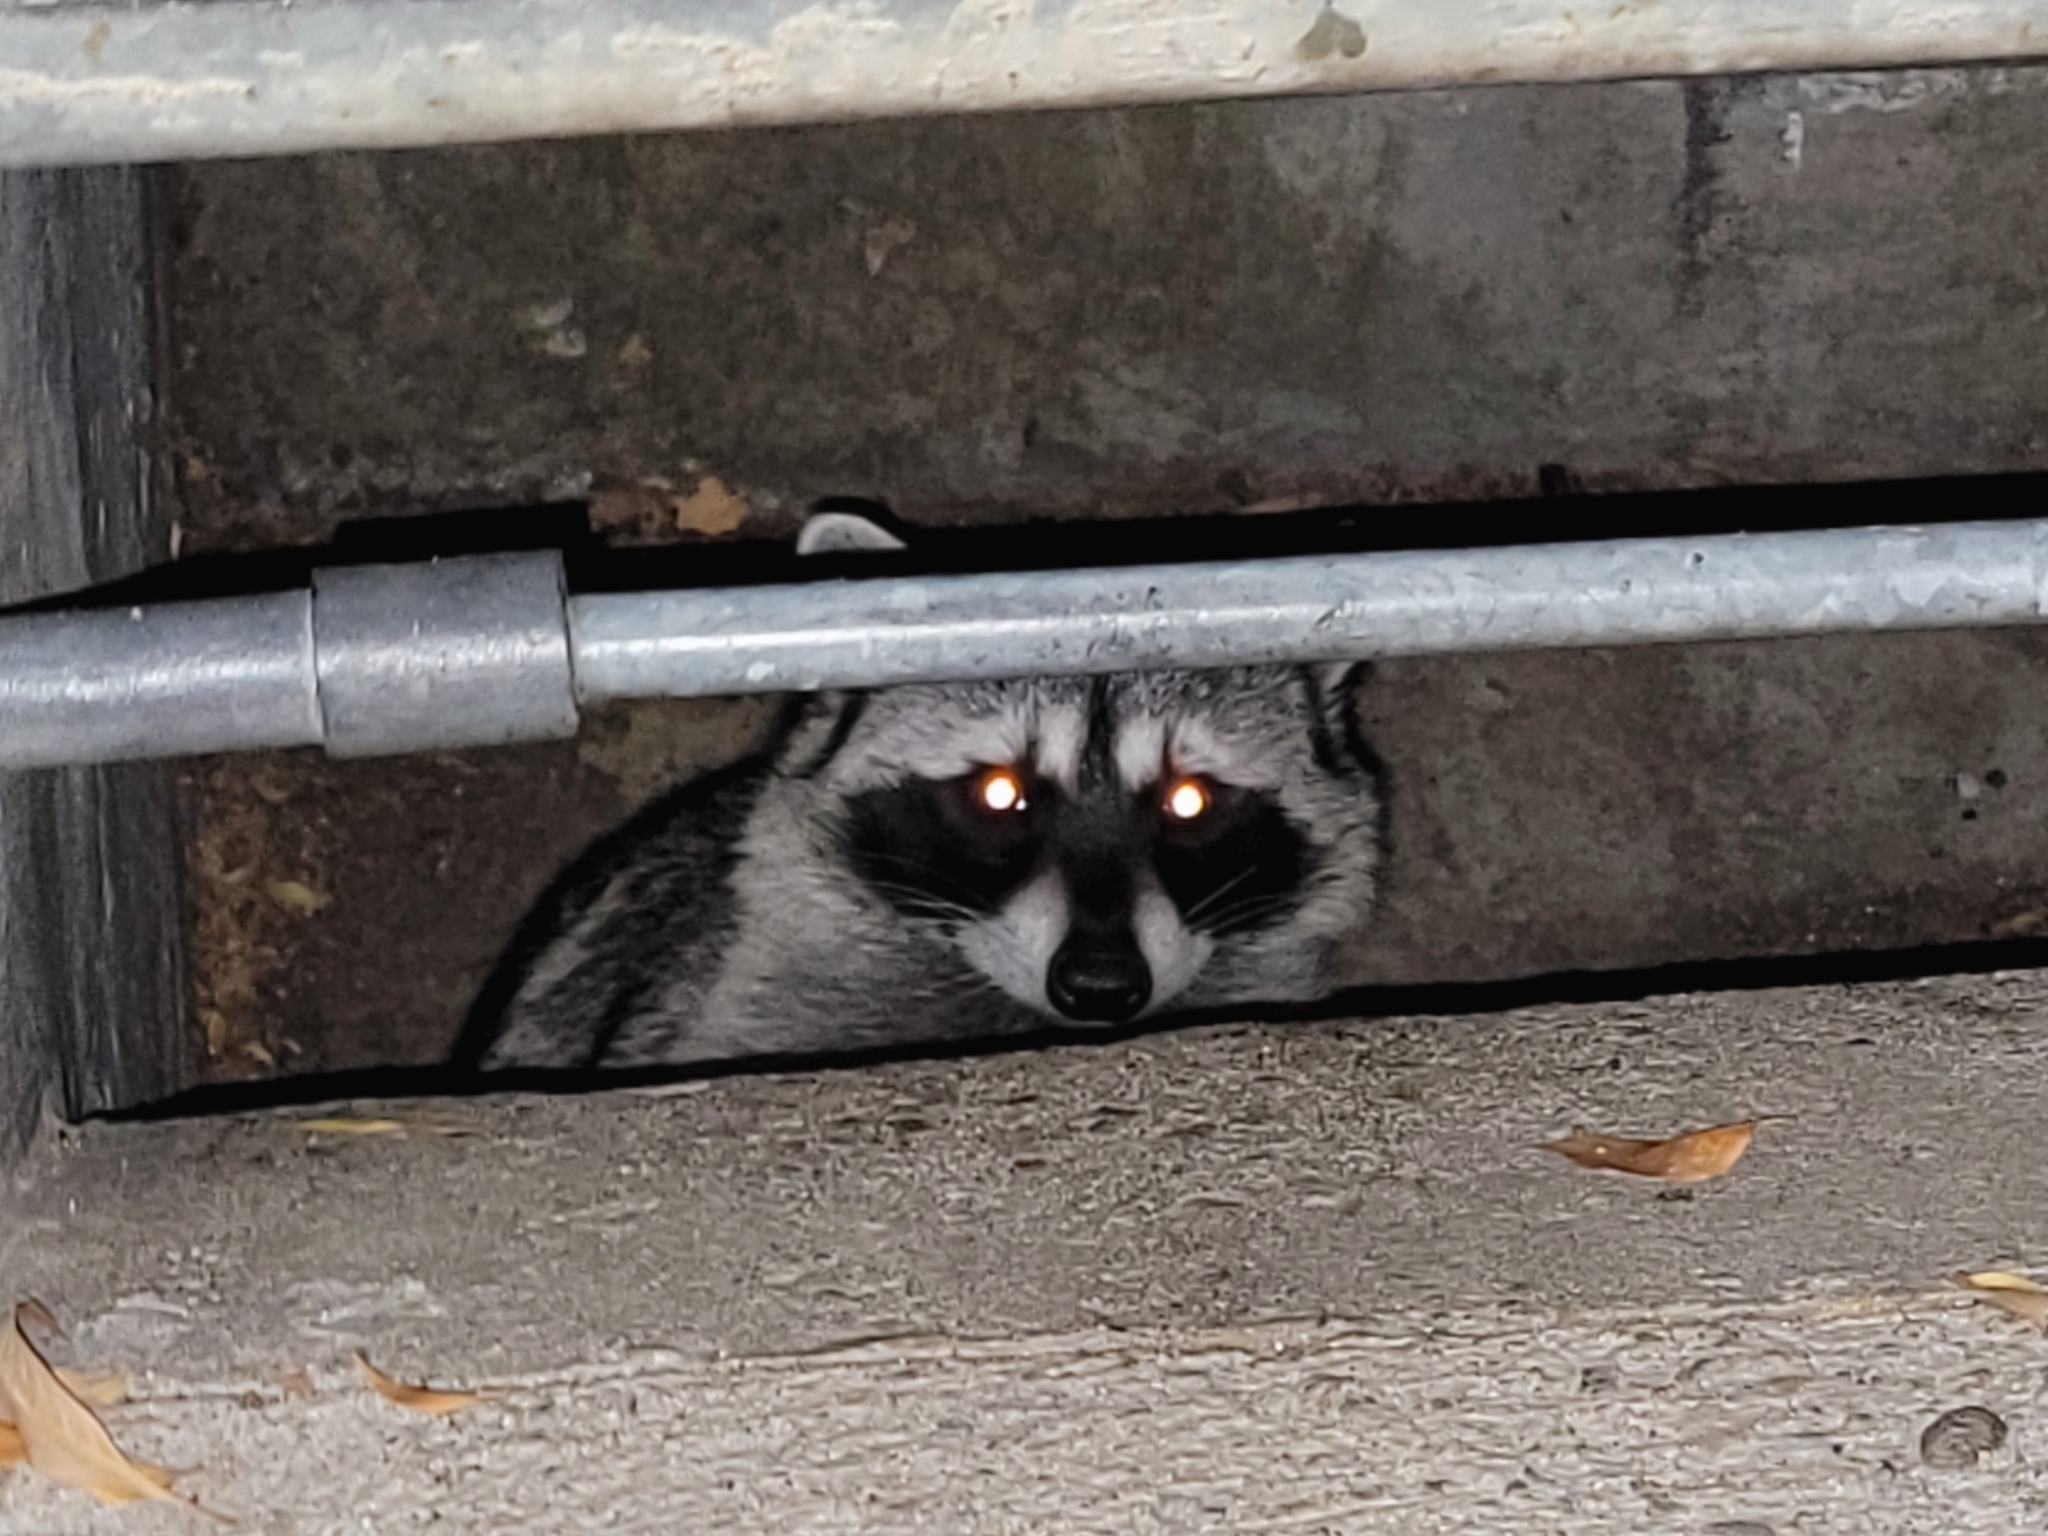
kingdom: Animalia
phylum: Chordata
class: Mammalia
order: Carnivora
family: Procyonidae
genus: Procyon
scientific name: Procyon lotor
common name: Raccoon
